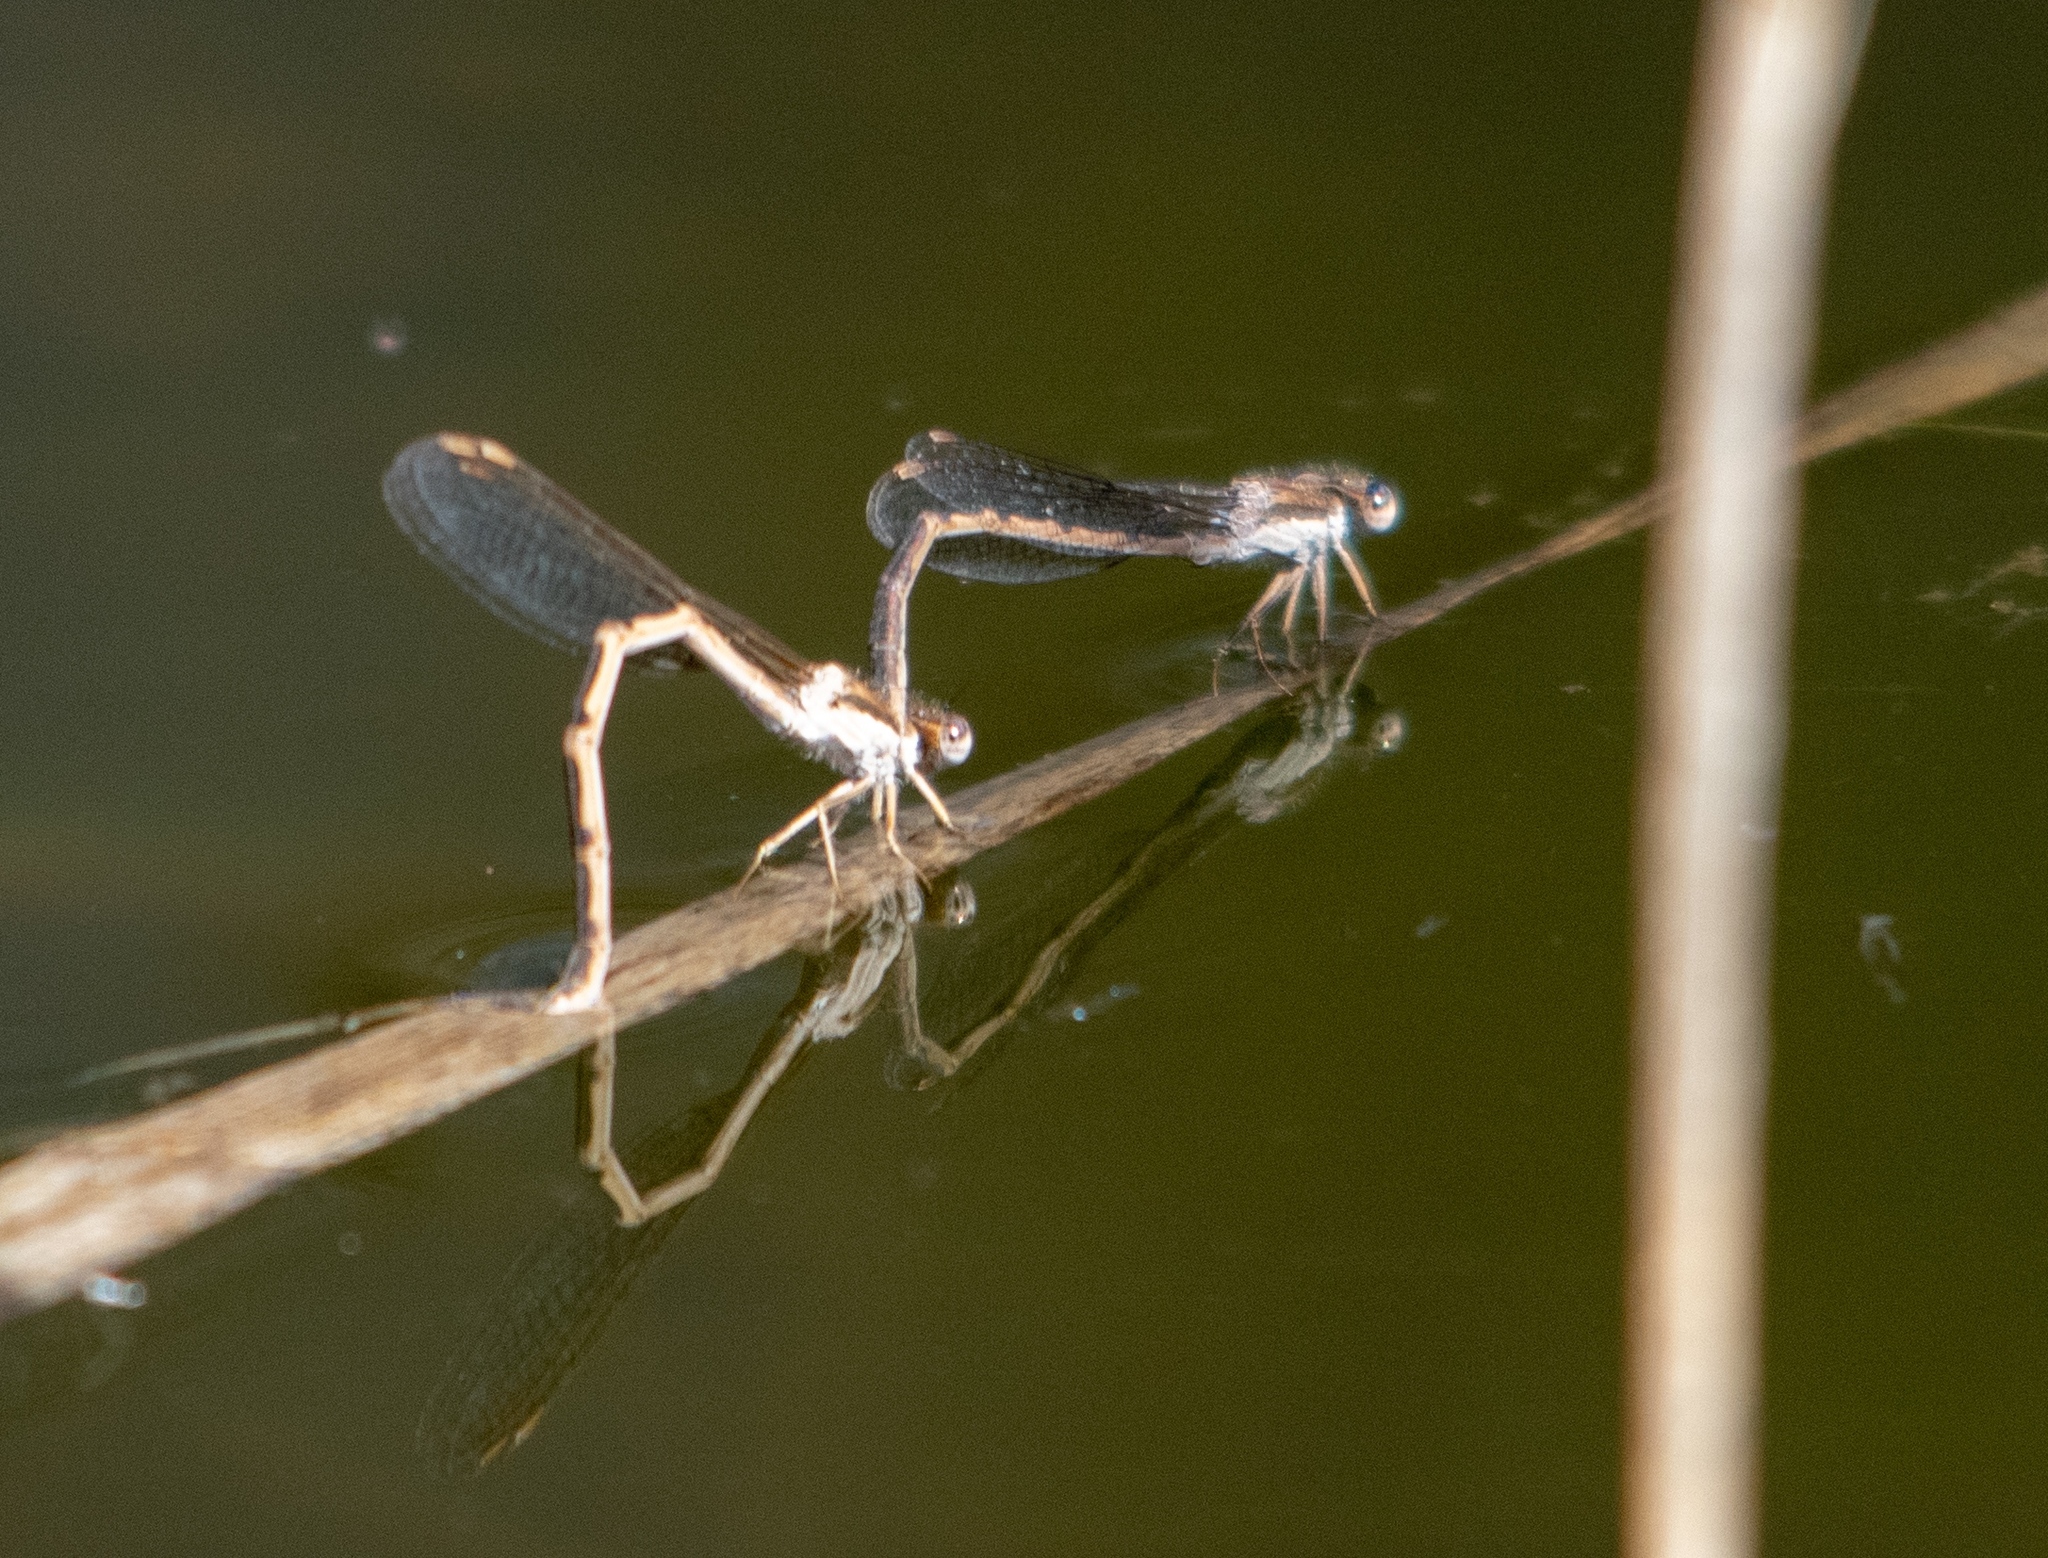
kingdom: Animalia
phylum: Arthropoda
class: Insecta
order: Odonata
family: Lestidae
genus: Sympecma
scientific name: Sympecma fusca
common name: Common winter damsel
